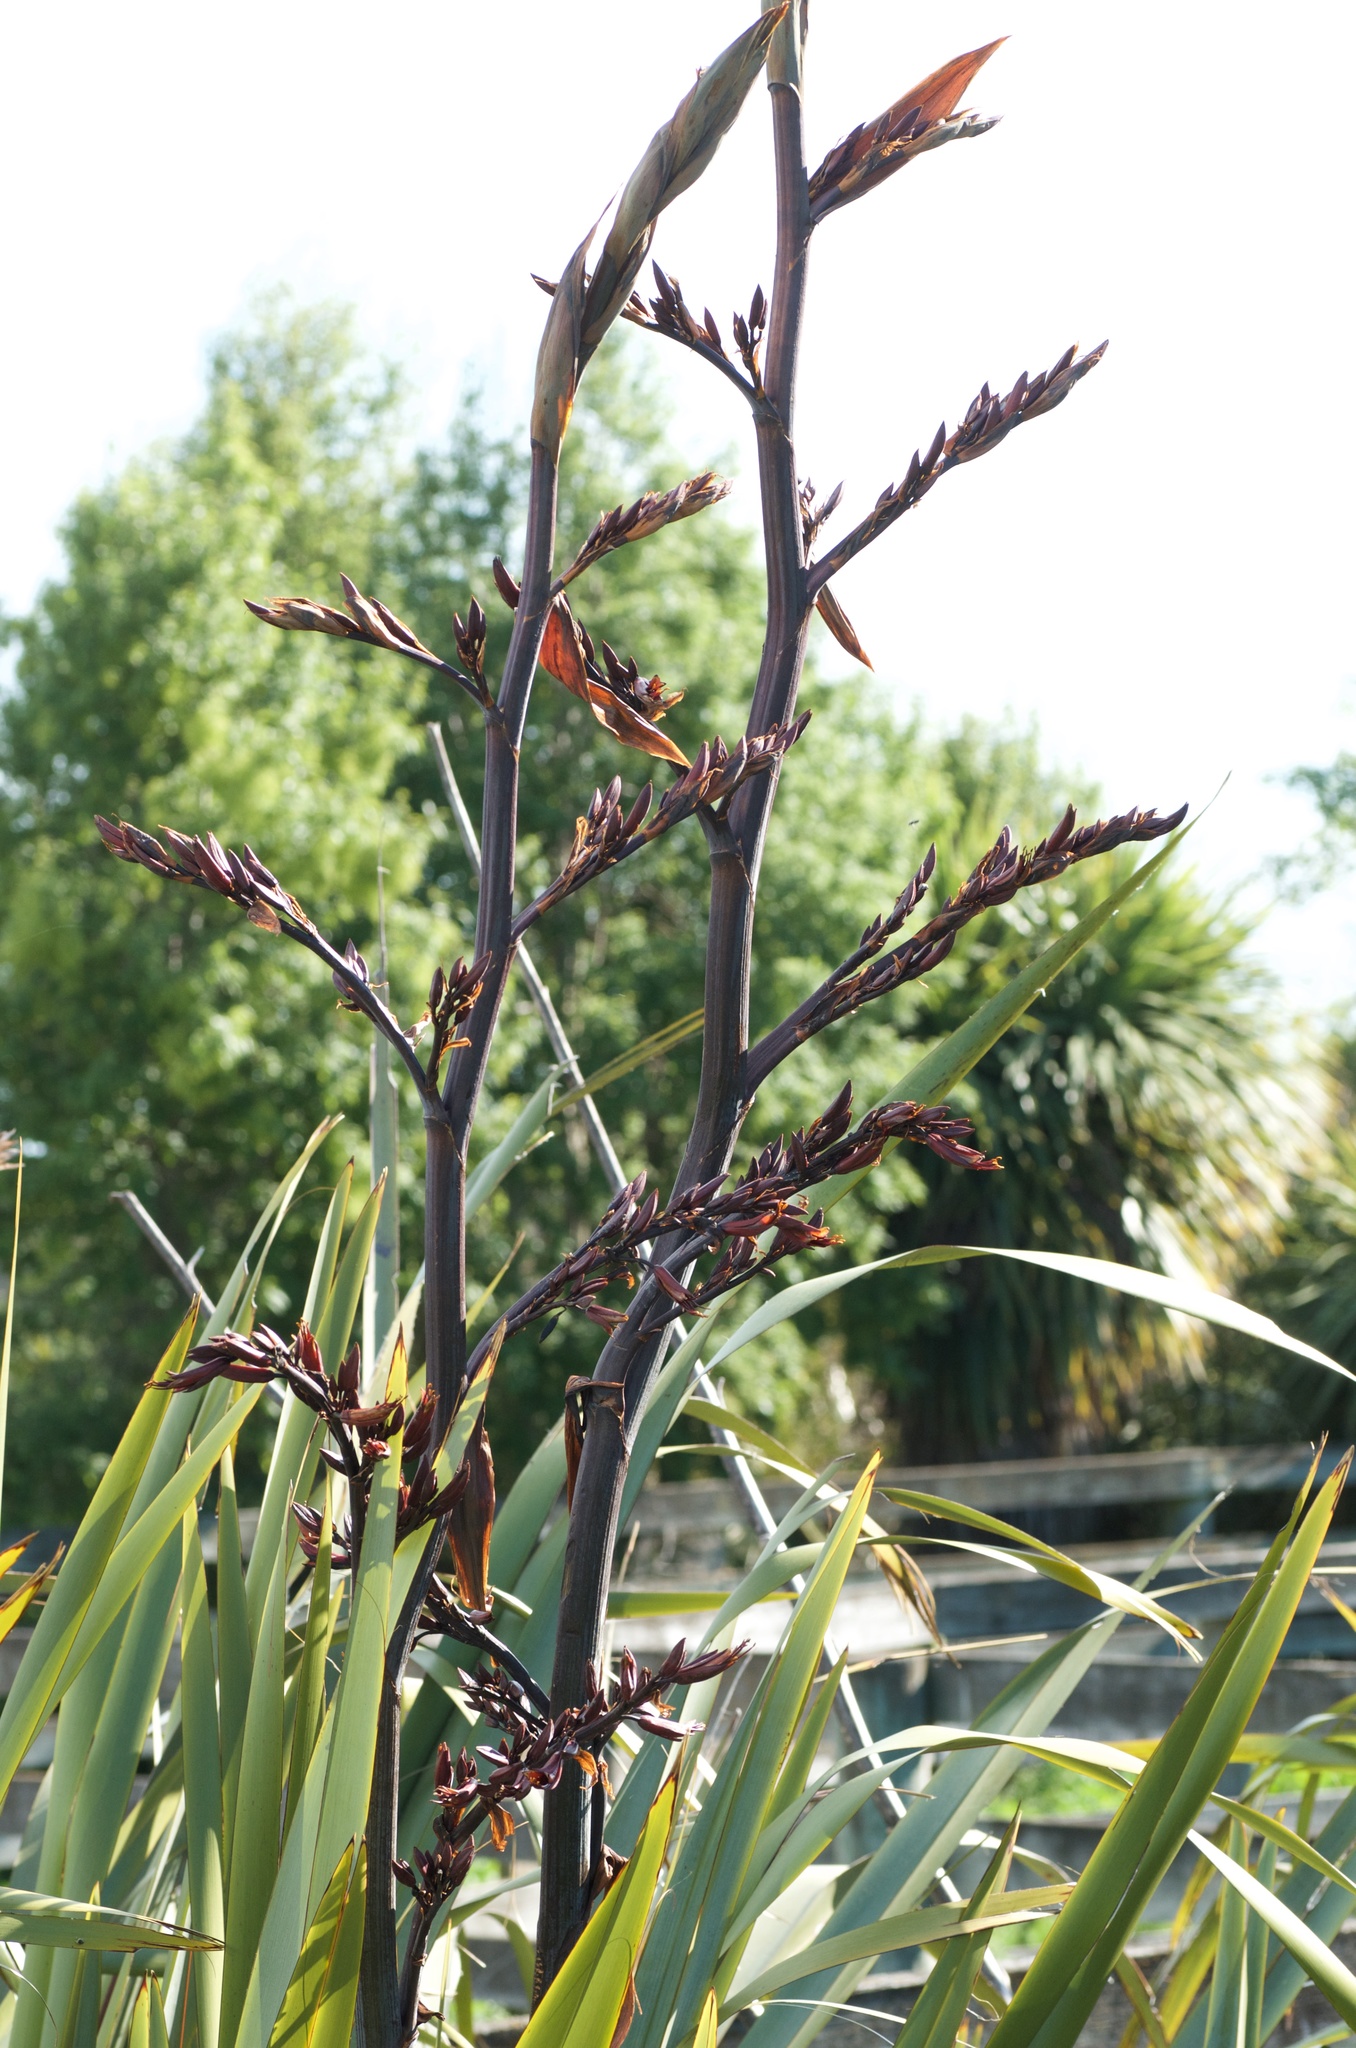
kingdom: Plantae
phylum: Tracheophyta
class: Liliopsida
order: Asparagales
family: Asphodelaceae
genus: Phormium
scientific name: Phormium tenax
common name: New zealand flax
